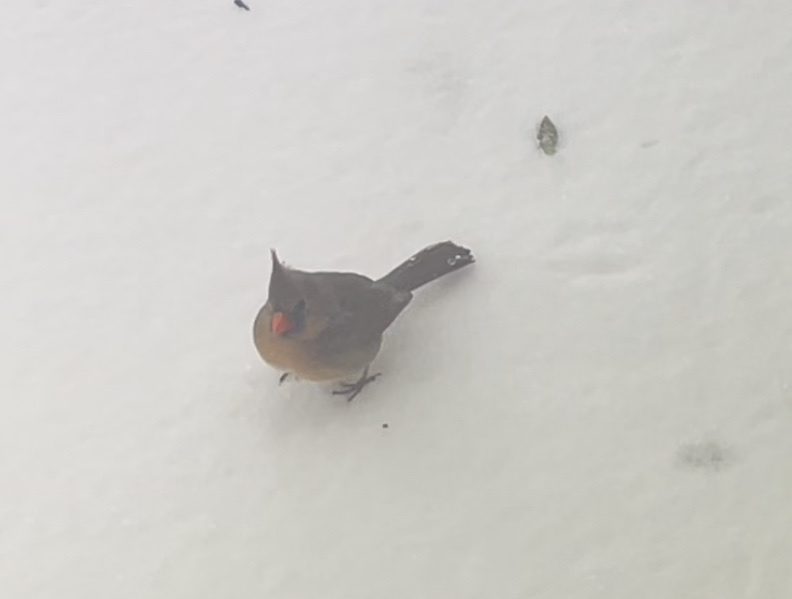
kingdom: Animalia
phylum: Chordata
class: Aves
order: Passeriformes
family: Cardinalidae
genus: Cardinalis
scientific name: Cardinalis cardinalis
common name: Northern cardinal
